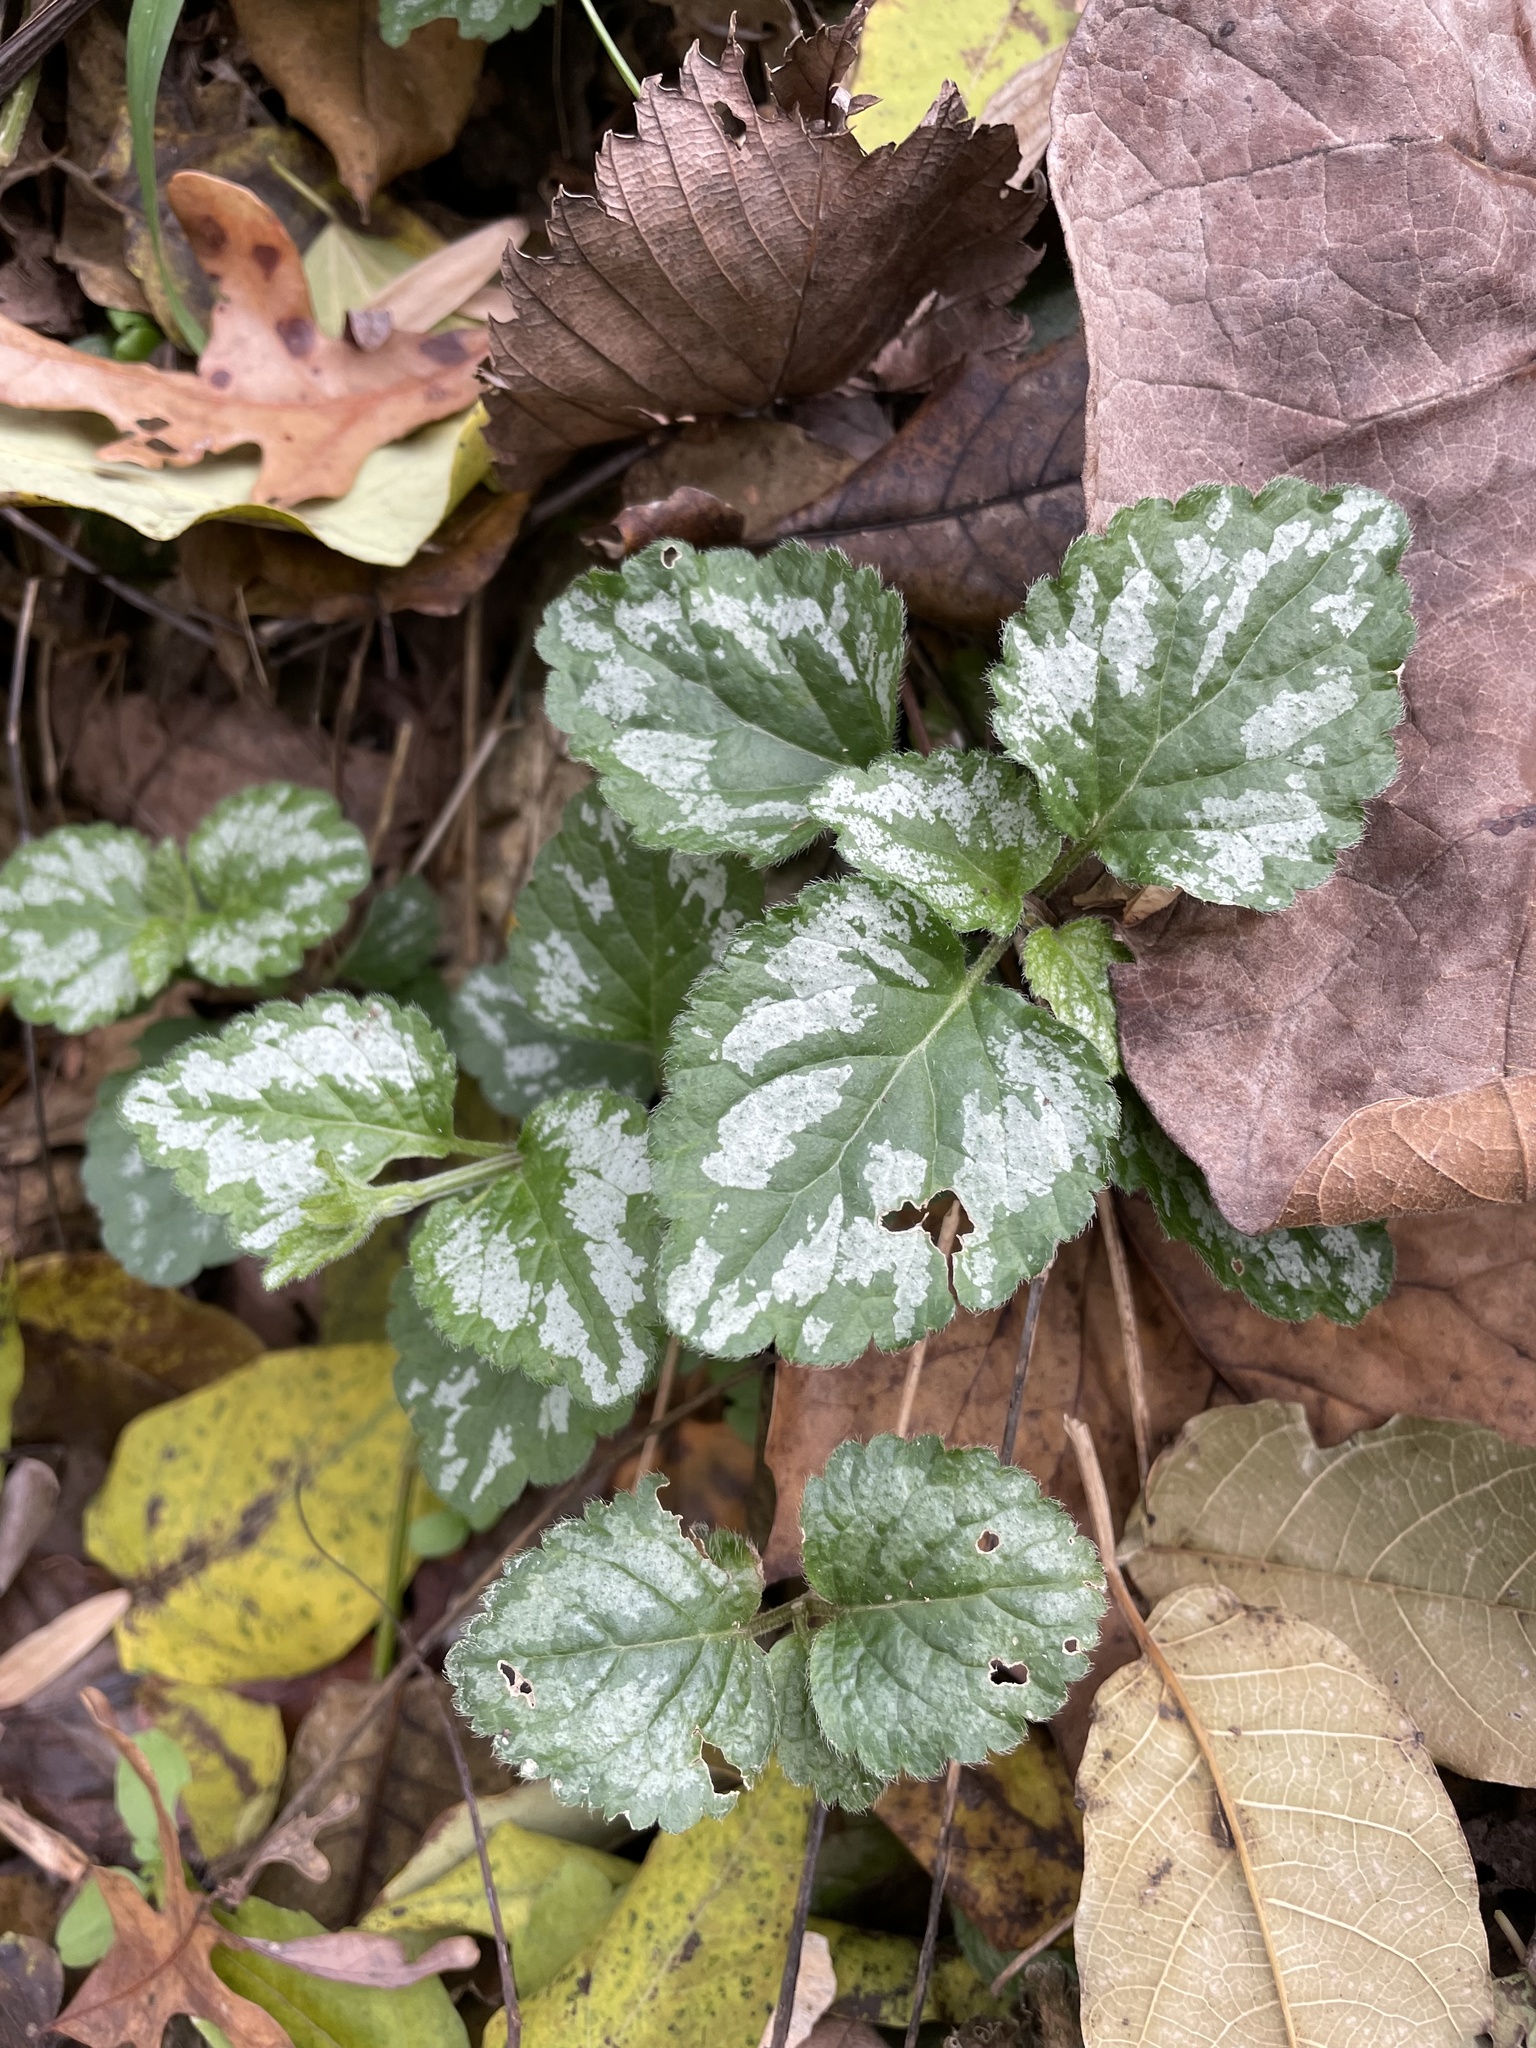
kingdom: Plantae
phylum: Tracheophyta
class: Magnoliopsida
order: Lamiales
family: Lamiaceae
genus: Lamium
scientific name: Lamium galeobdolon
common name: Yellow archangel
